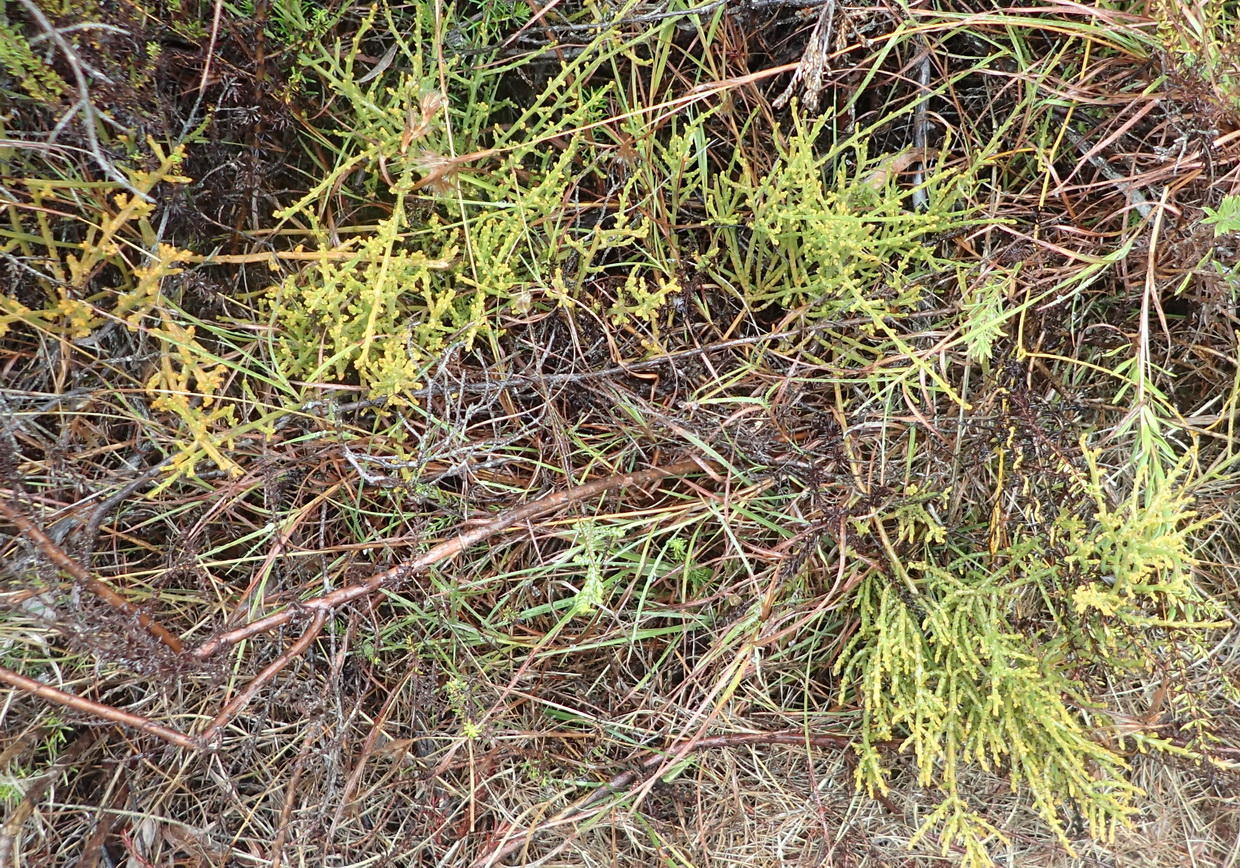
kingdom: Plantae
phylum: Tracheophyta
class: Magnoliopsida
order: Santalales
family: Thesiaceae
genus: Thesium
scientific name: Thesium fragile
